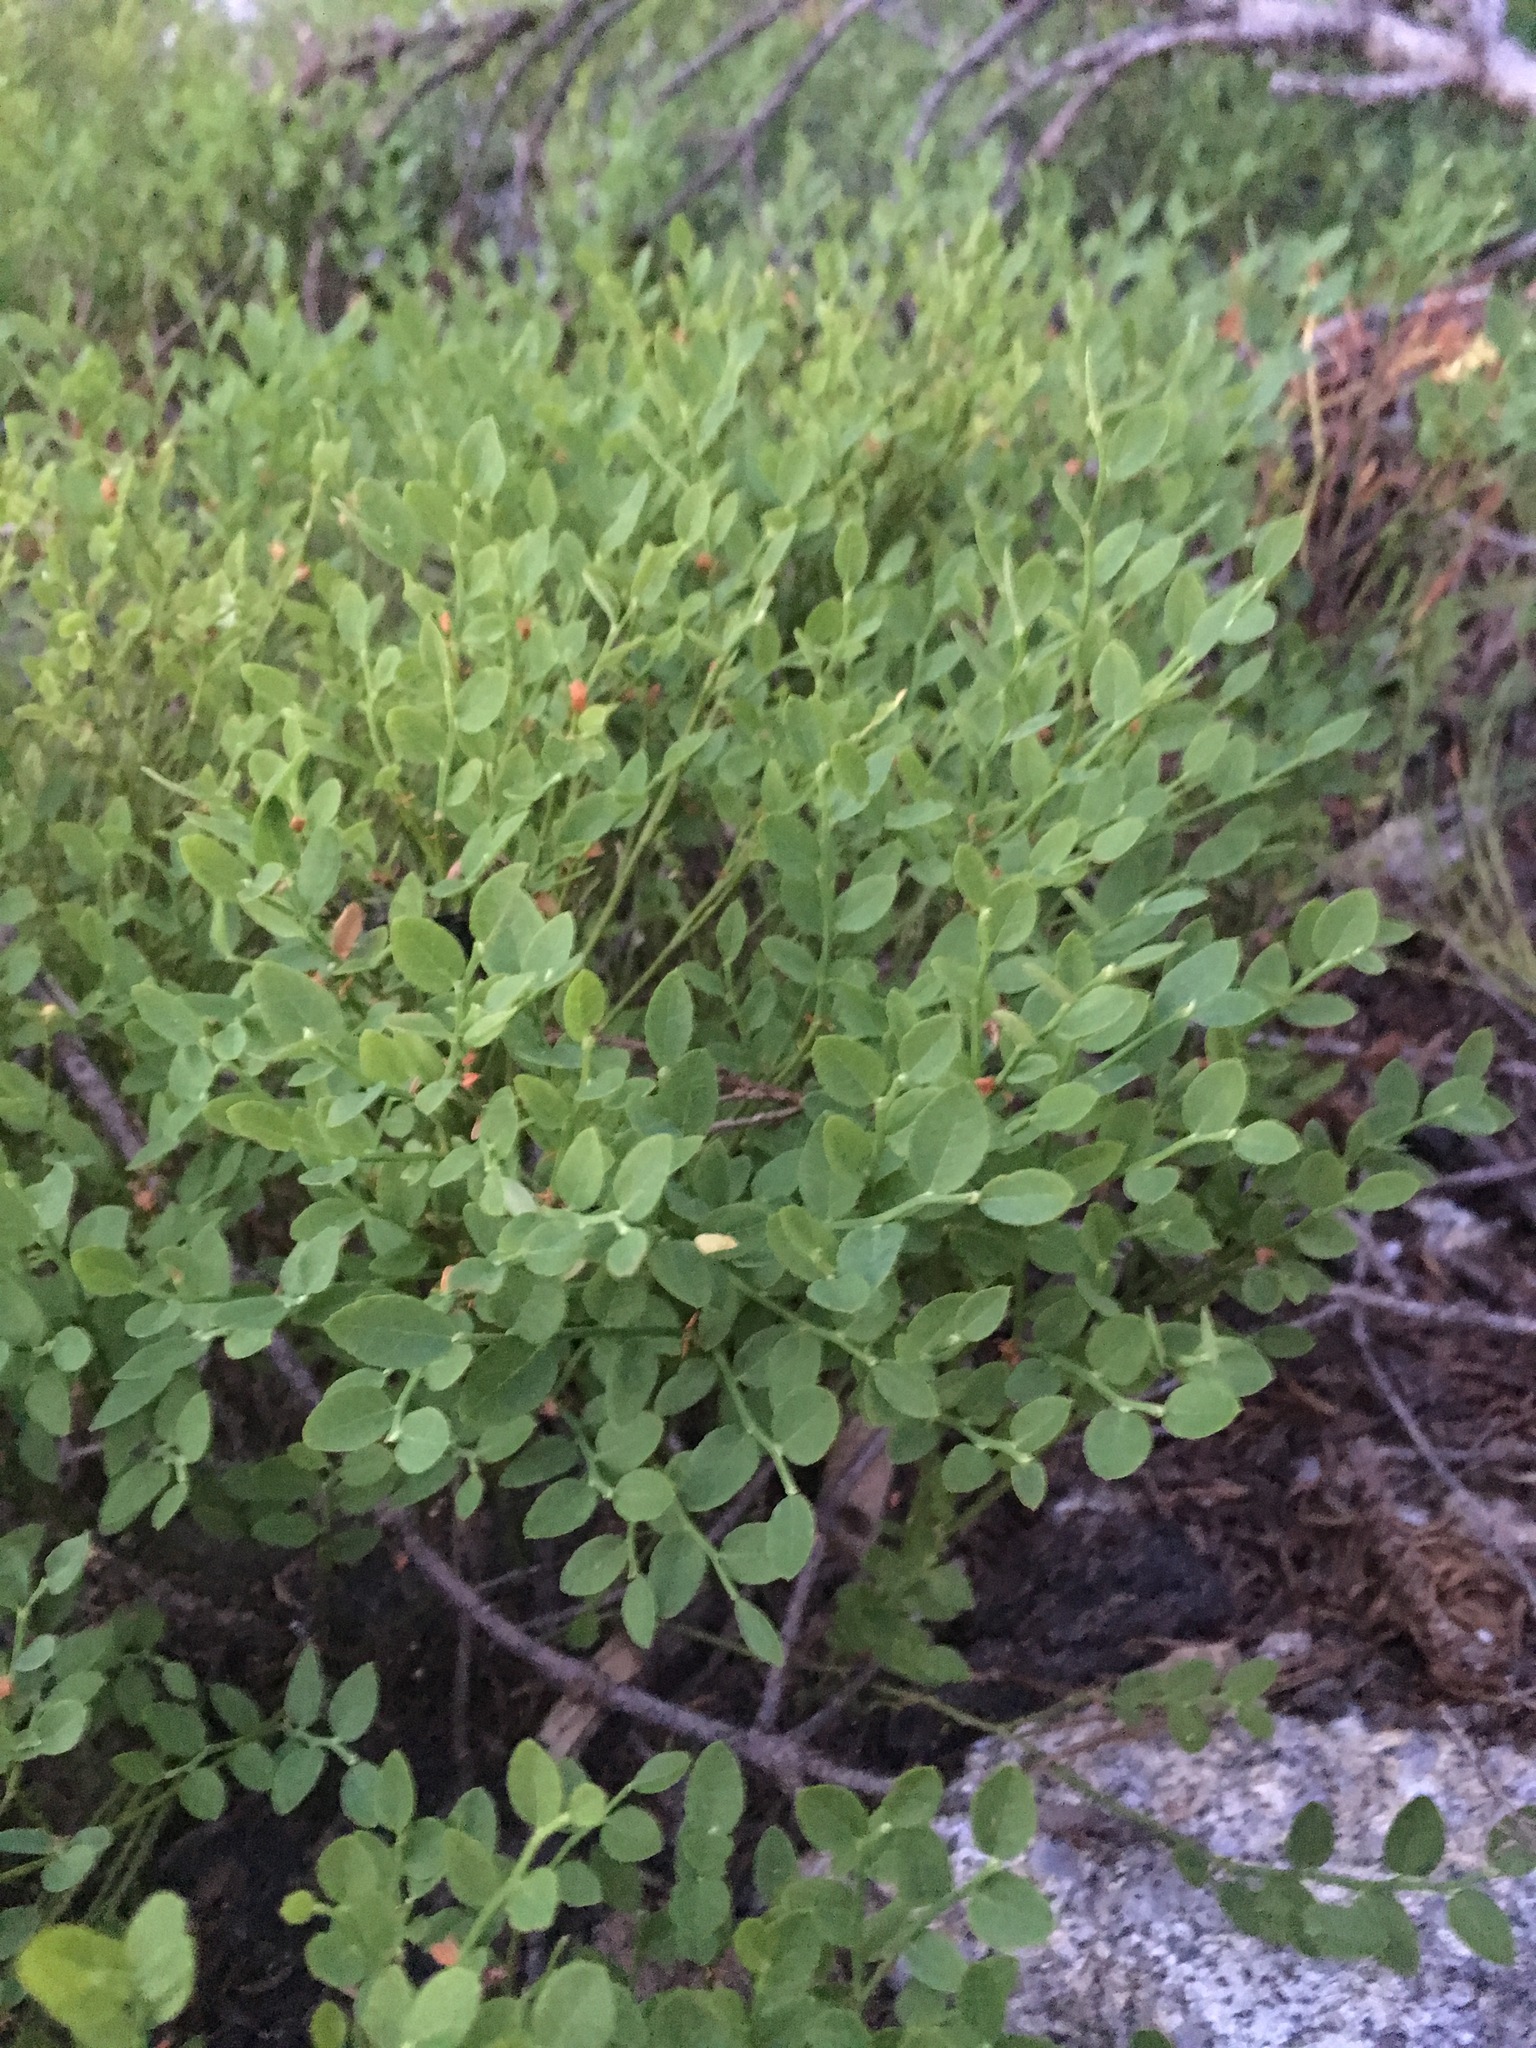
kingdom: Plantae
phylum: Tracheophyta
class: Magnoliopsida
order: Ericales
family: Ericaceae
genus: Vaccinium
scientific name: Vaccinium scoparium
